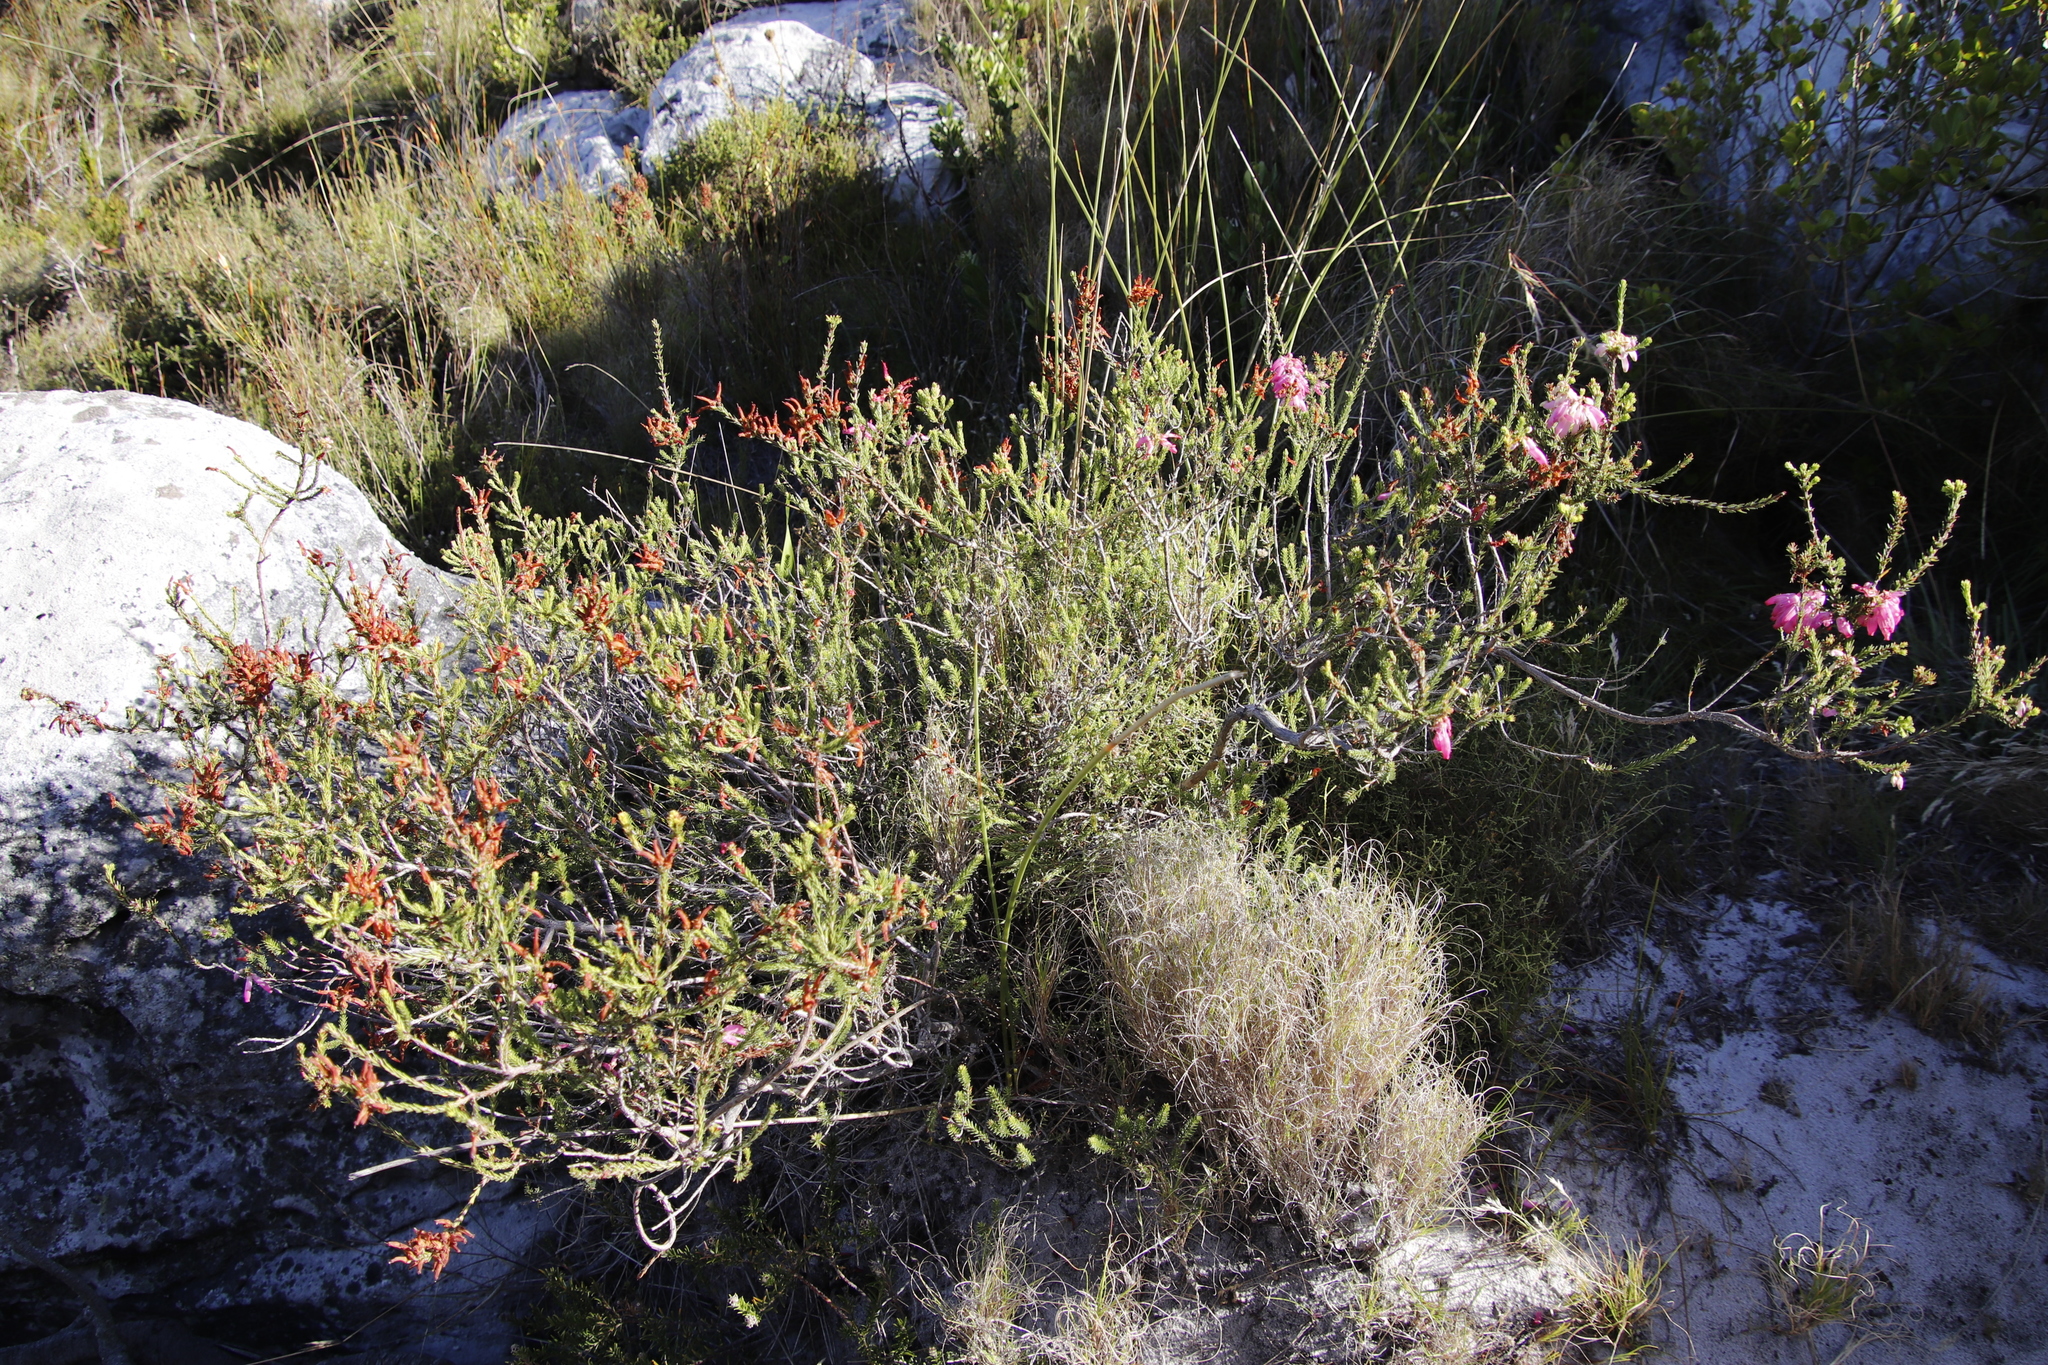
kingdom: Plantae
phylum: Tracheophyta
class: Magnoliopsida
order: Ericales
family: Ericaceae
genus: Erica
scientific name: Erica mammosa
